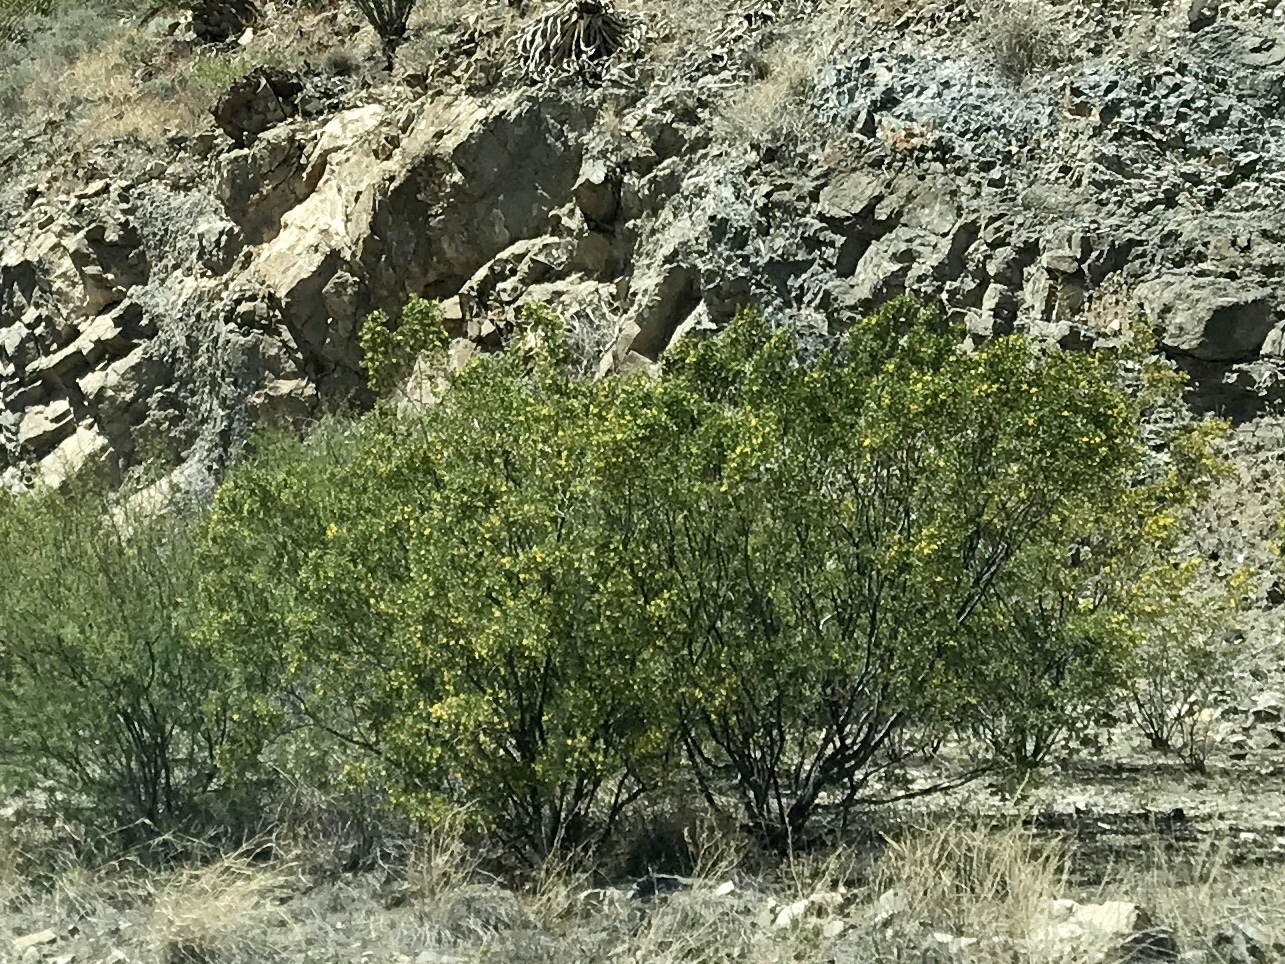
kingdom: Plantae
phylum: Tracheophyta
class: Magnoliopsida
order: Zygophyllales
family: Zygophyllaceae
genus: Larrea
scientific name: Larrea tridentata
